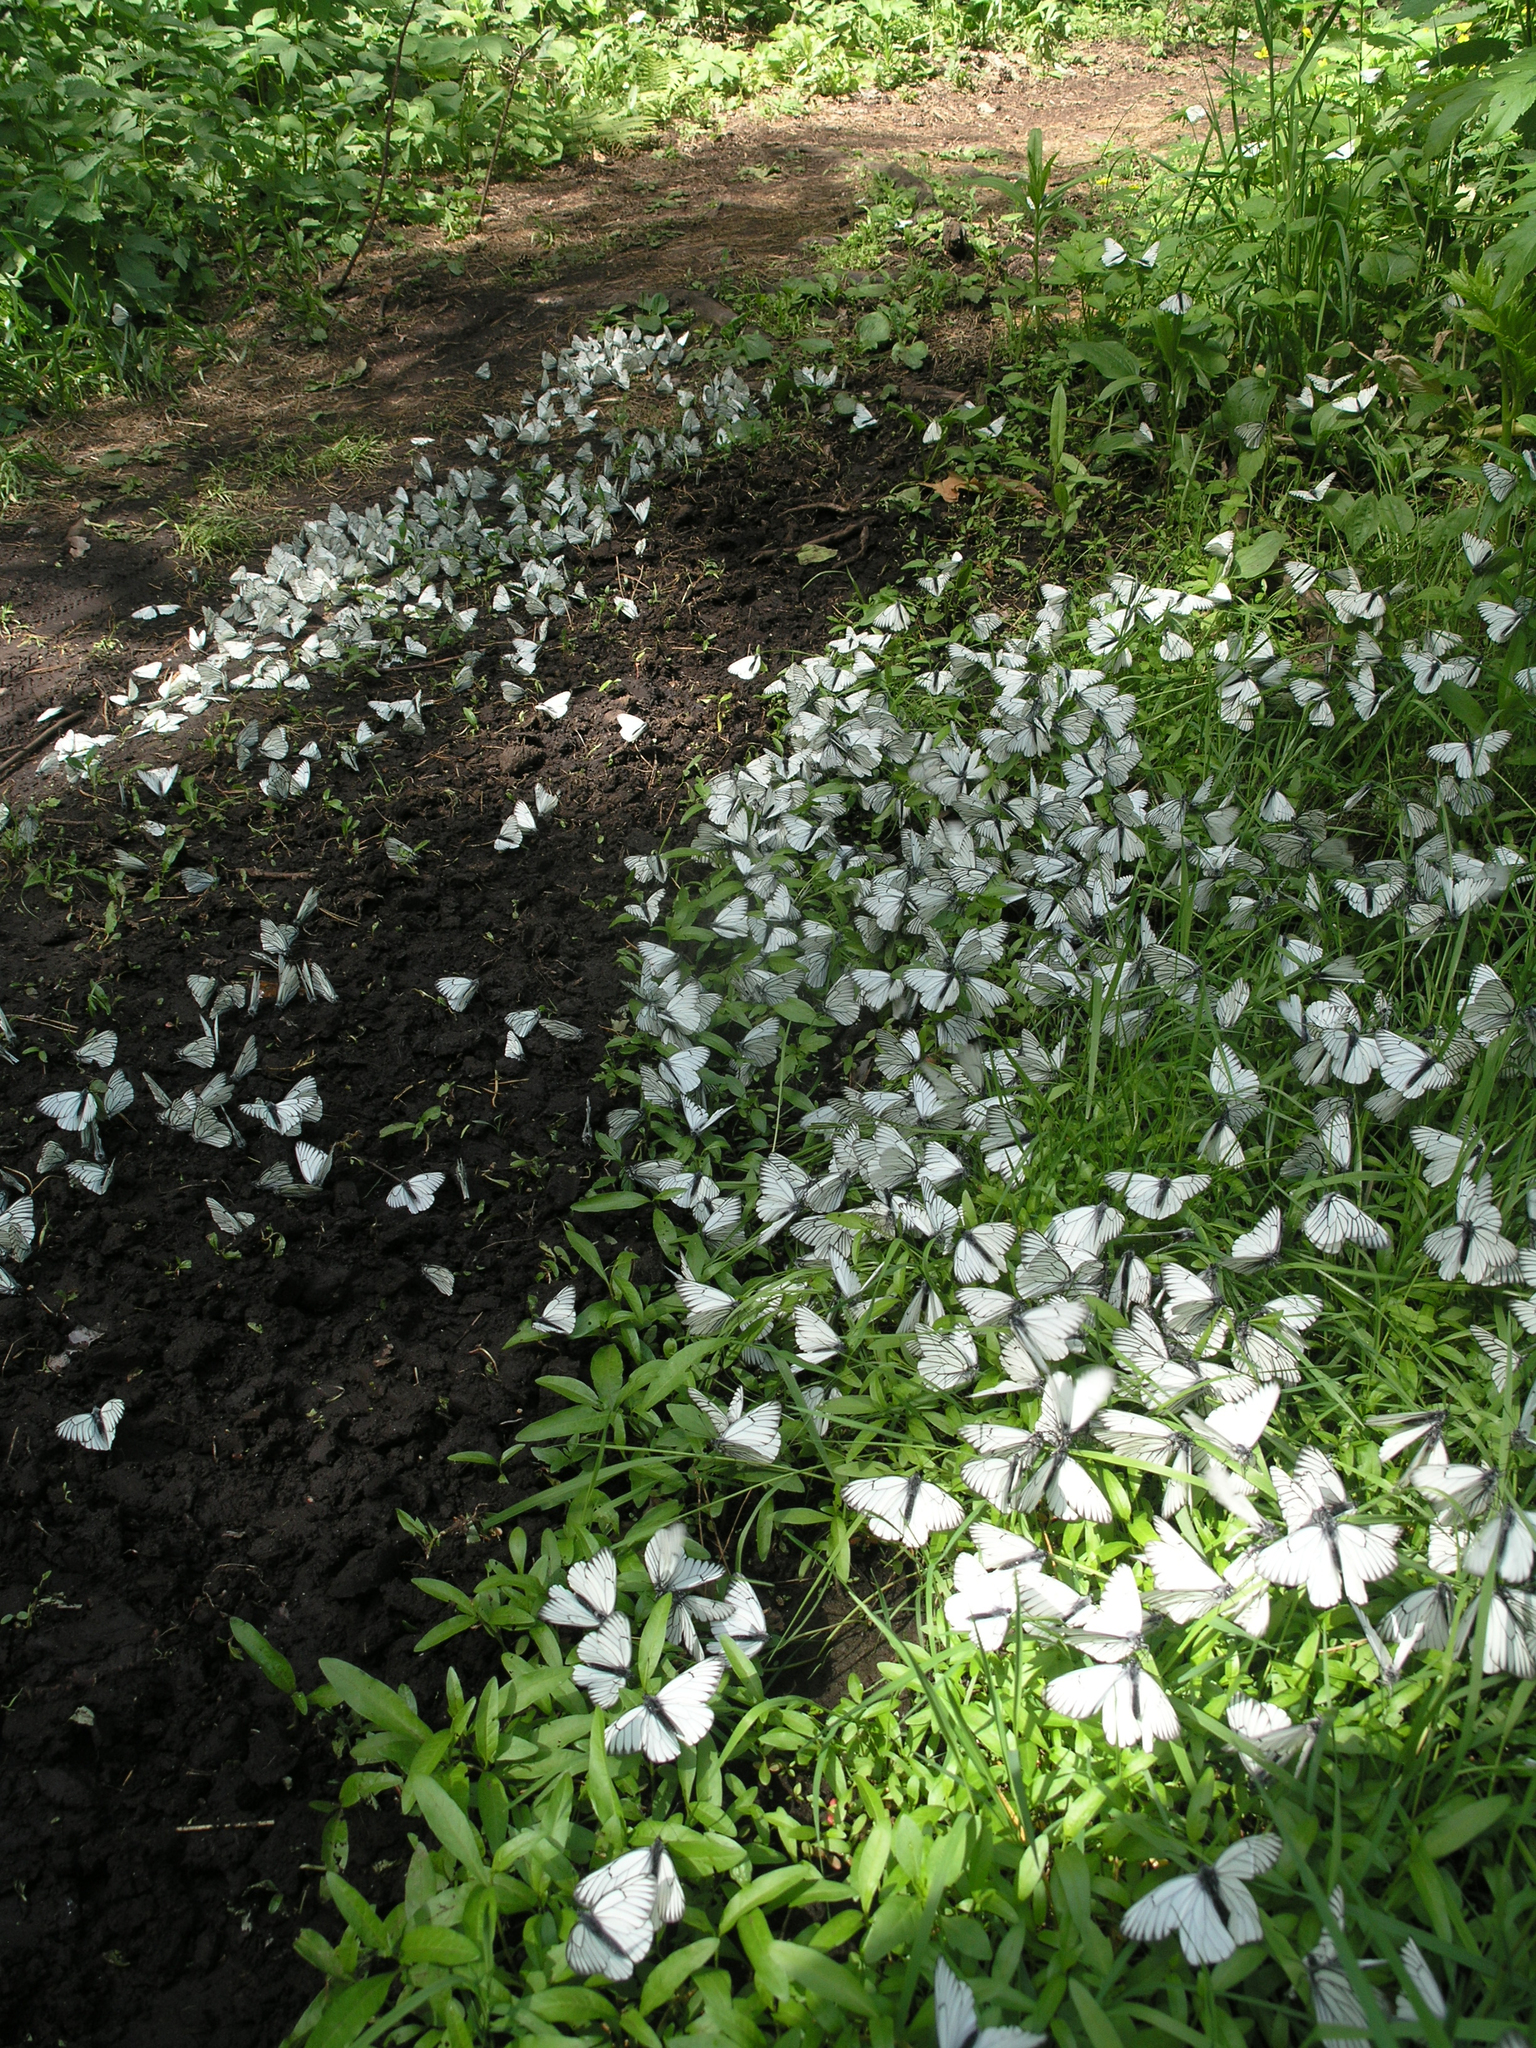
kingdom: Animalia
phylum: Arthropoda
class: Insecta
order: Lepidoptera
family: Pieridae
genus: Aporia
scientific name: Aporia crataegi
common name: Black-veined white
